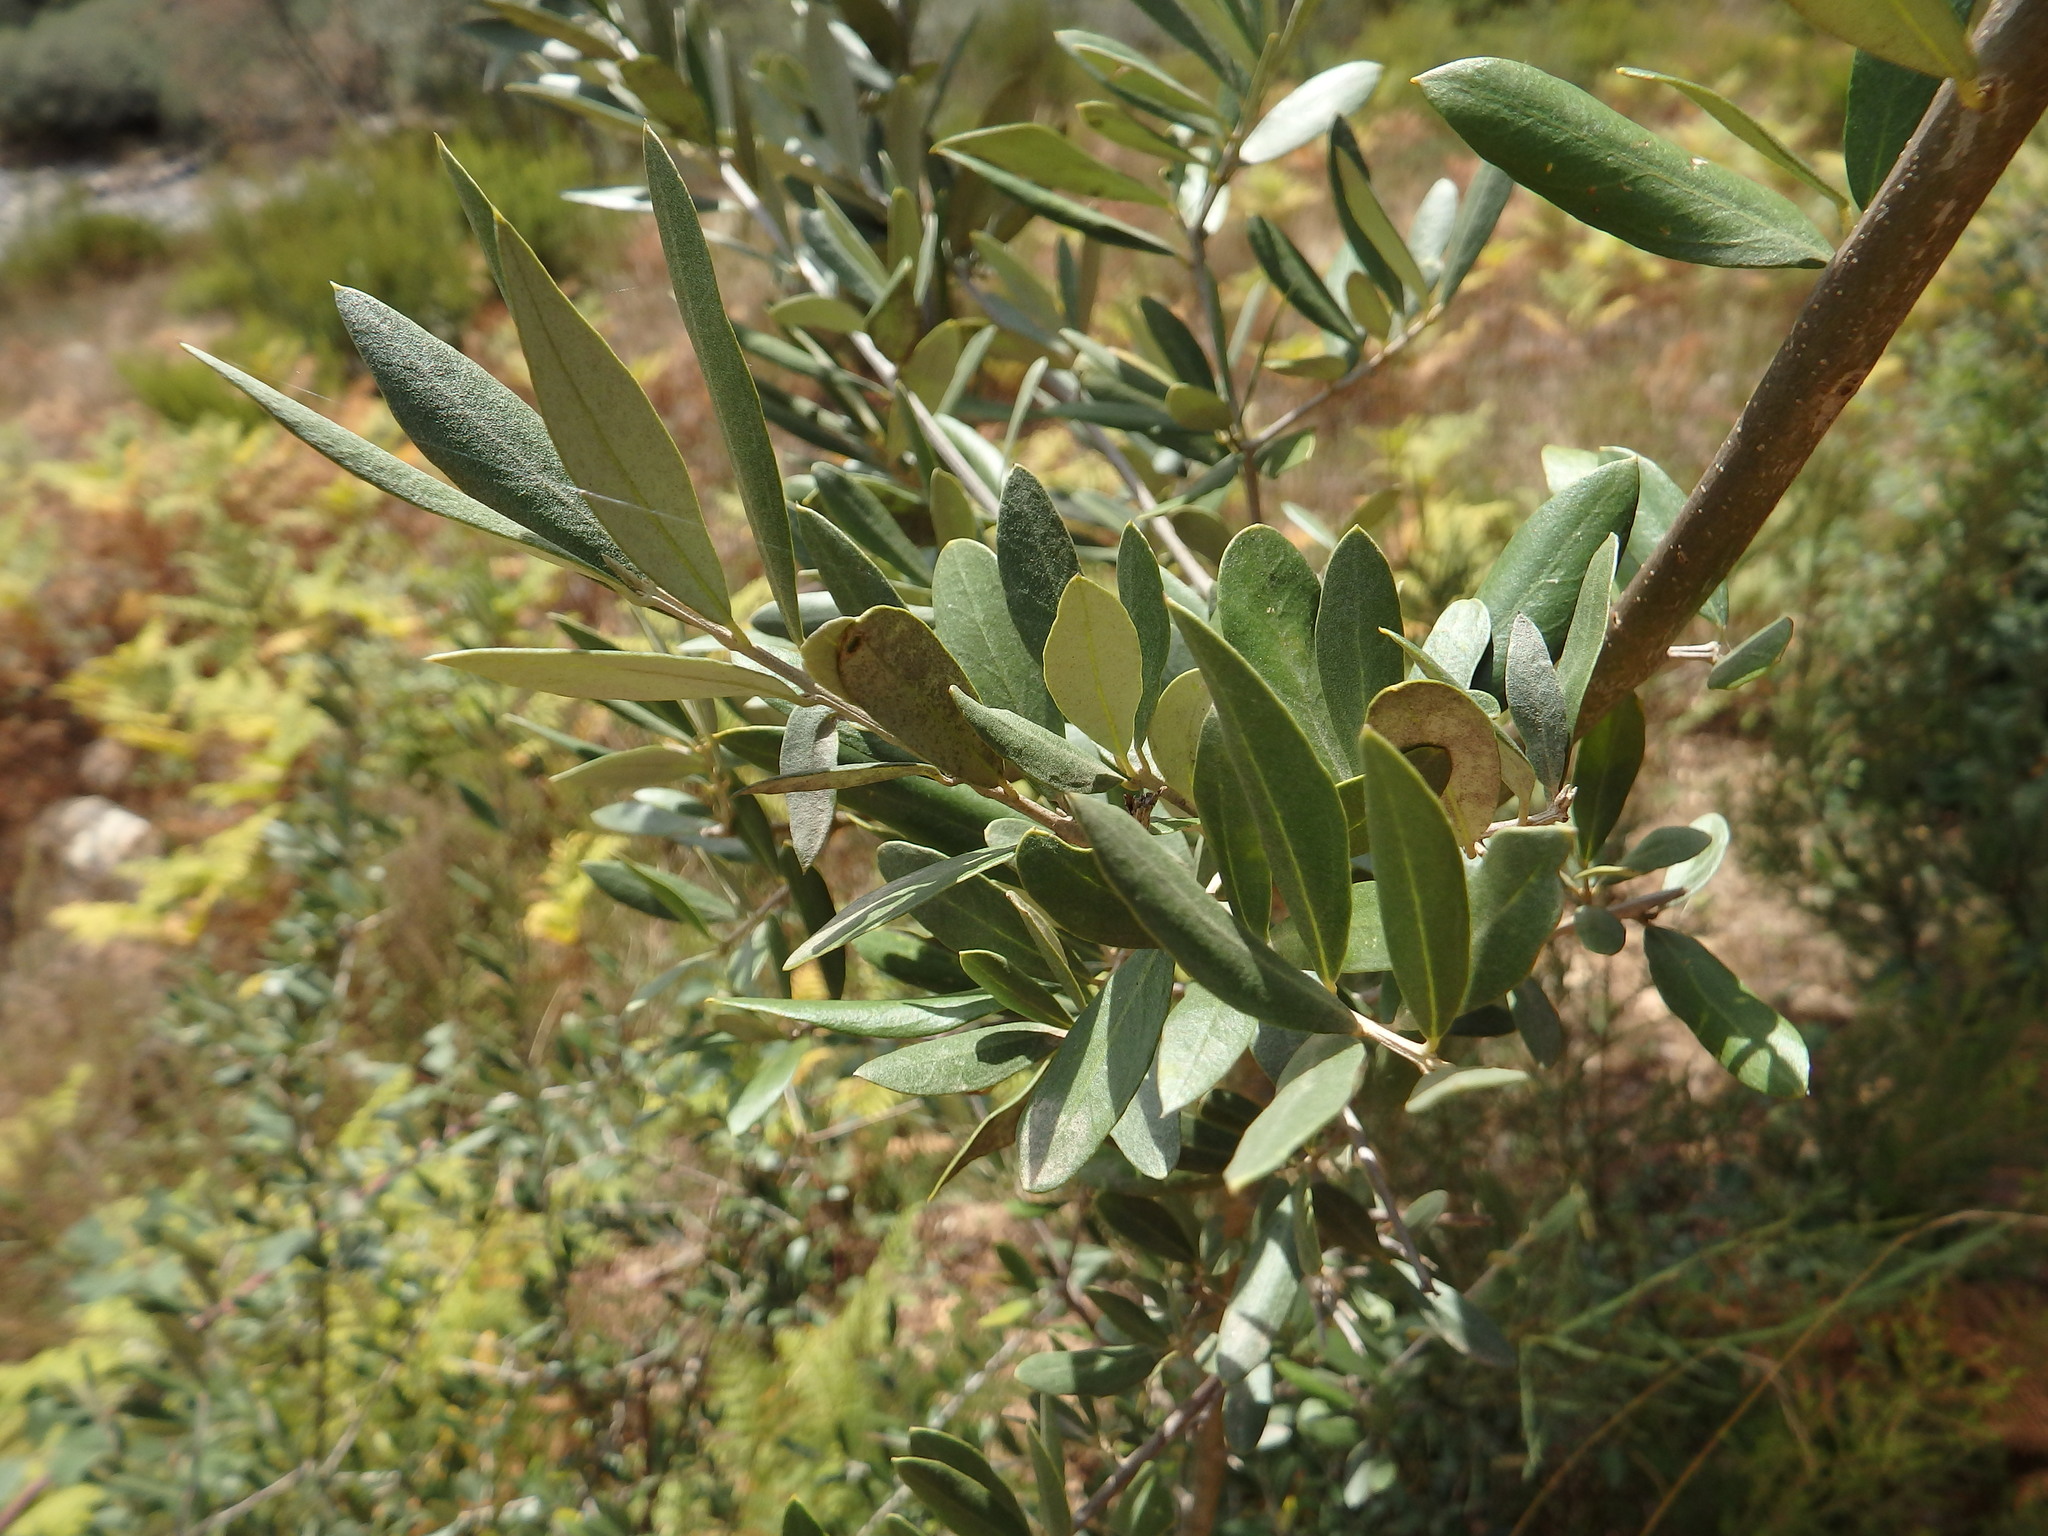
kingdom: Plantae
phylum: Tracheophyta
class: Magnoliopsida
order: Lamiales
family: Oleaceae
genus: Olea
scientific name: Olea europaea
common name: Olive
